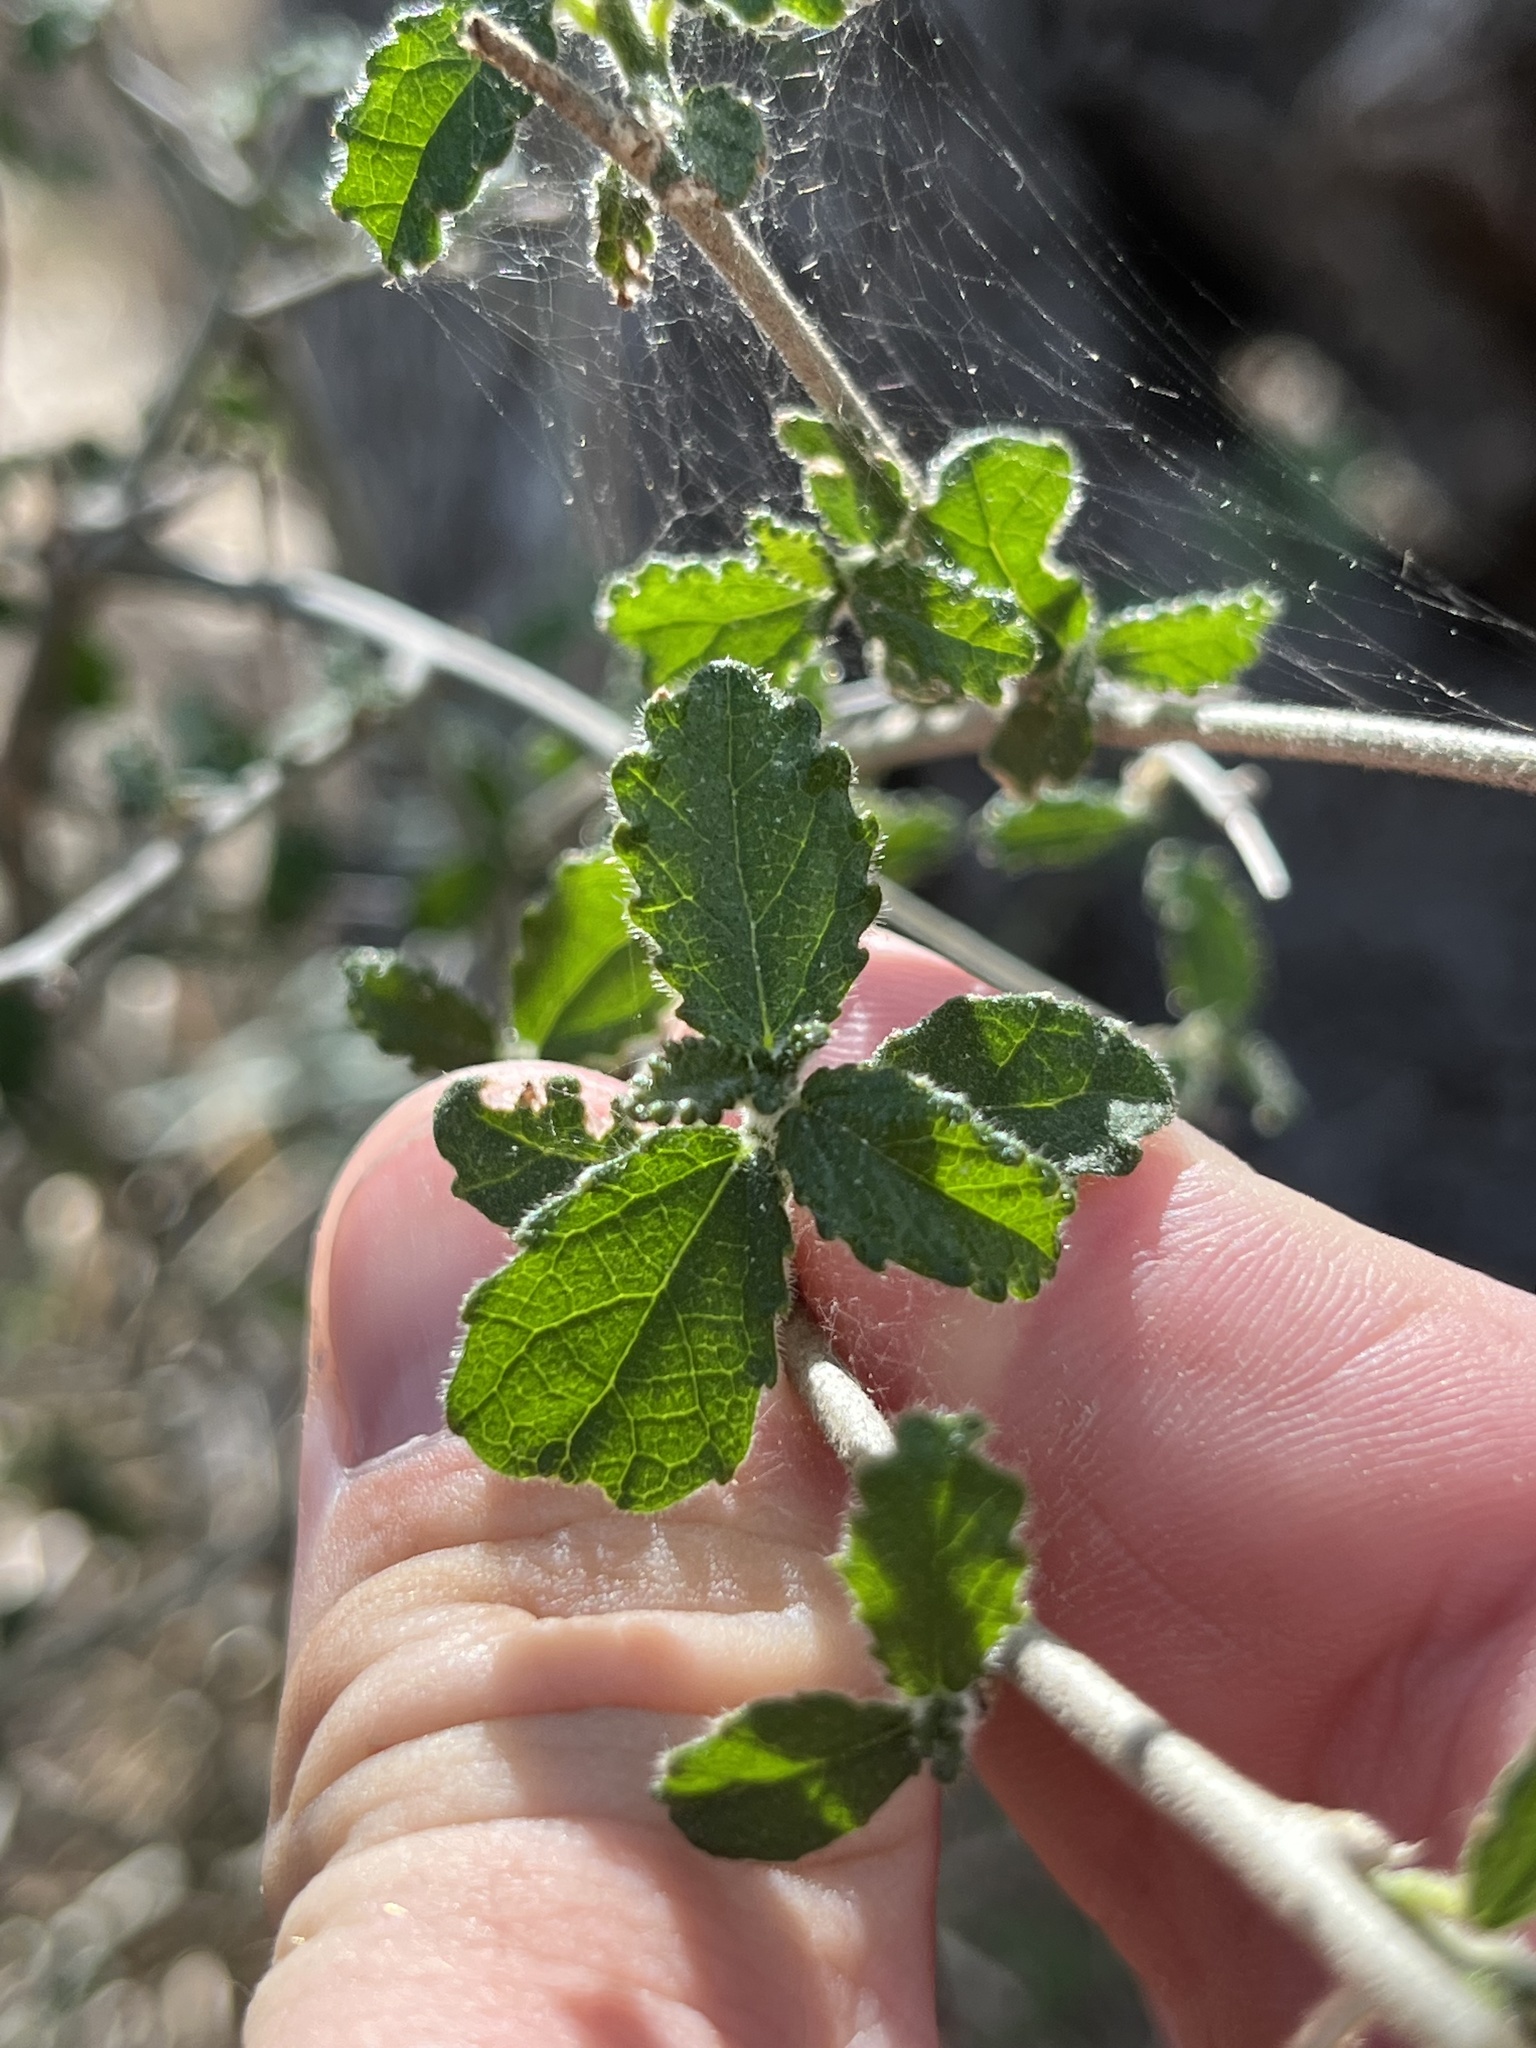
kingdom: Plantae
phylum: Tracheophyta
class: Magnoliopsida
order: Malpighiales
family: Euphorbiaceae
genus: Bernardia
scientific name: Bernardia myricifolia
